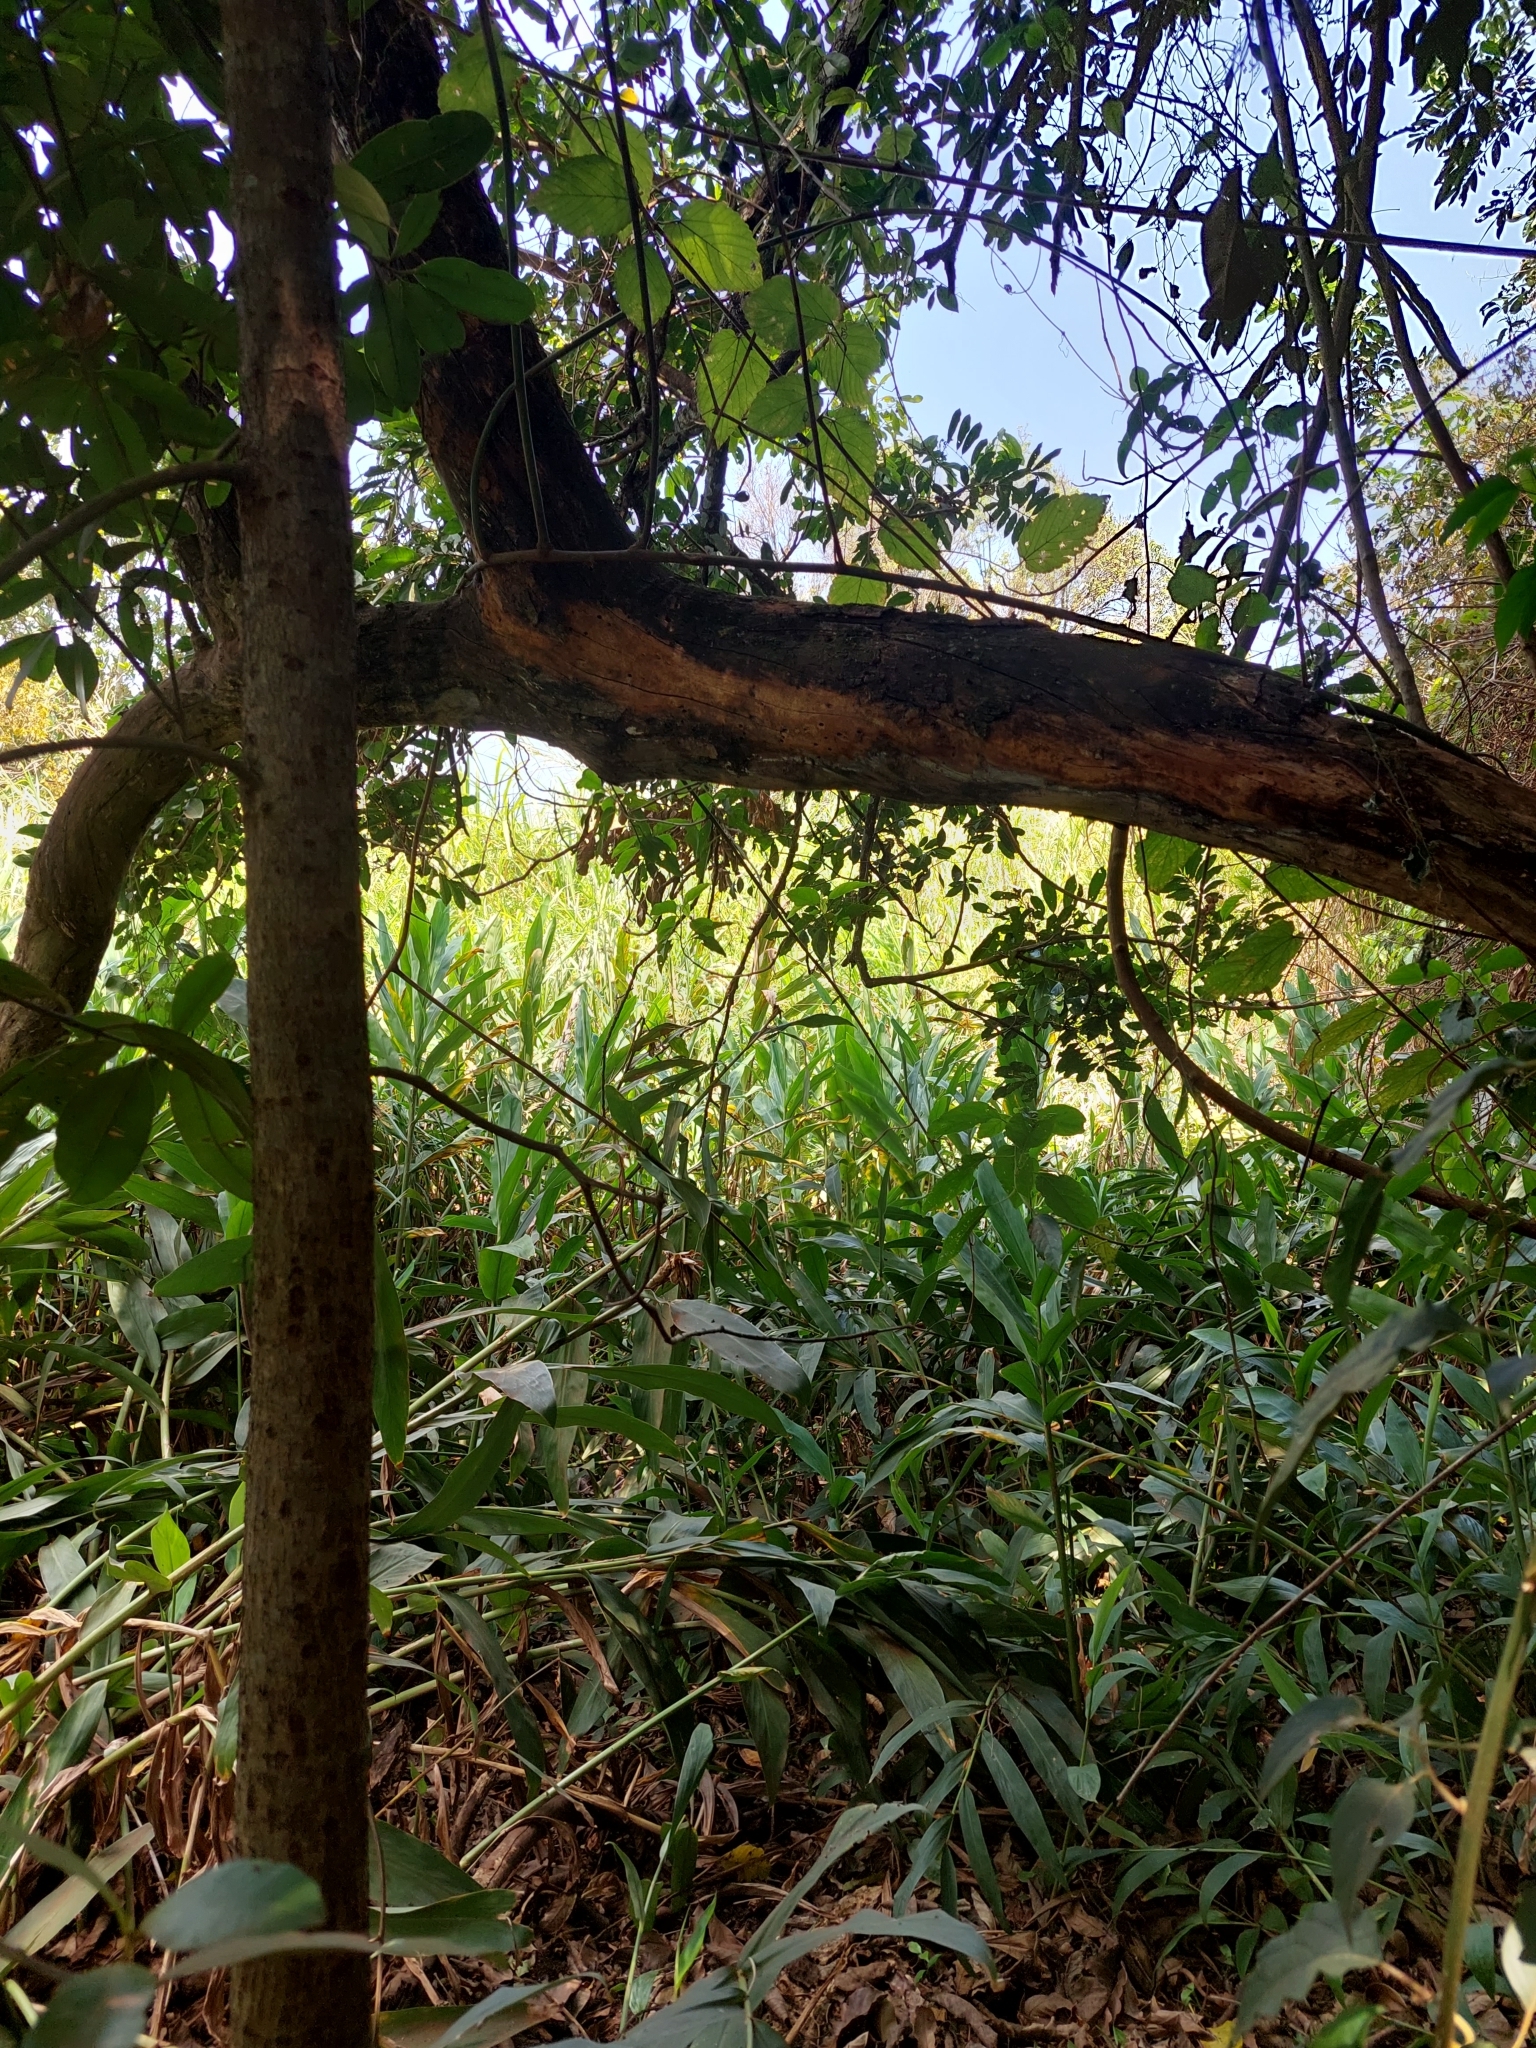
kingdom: Plantae
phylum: Tracheophyta
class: Liliopsida
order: Zingiberales
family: Zingiberaceae
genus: Hedychium
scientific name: Hedychium coronarium
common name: White garland-lily
